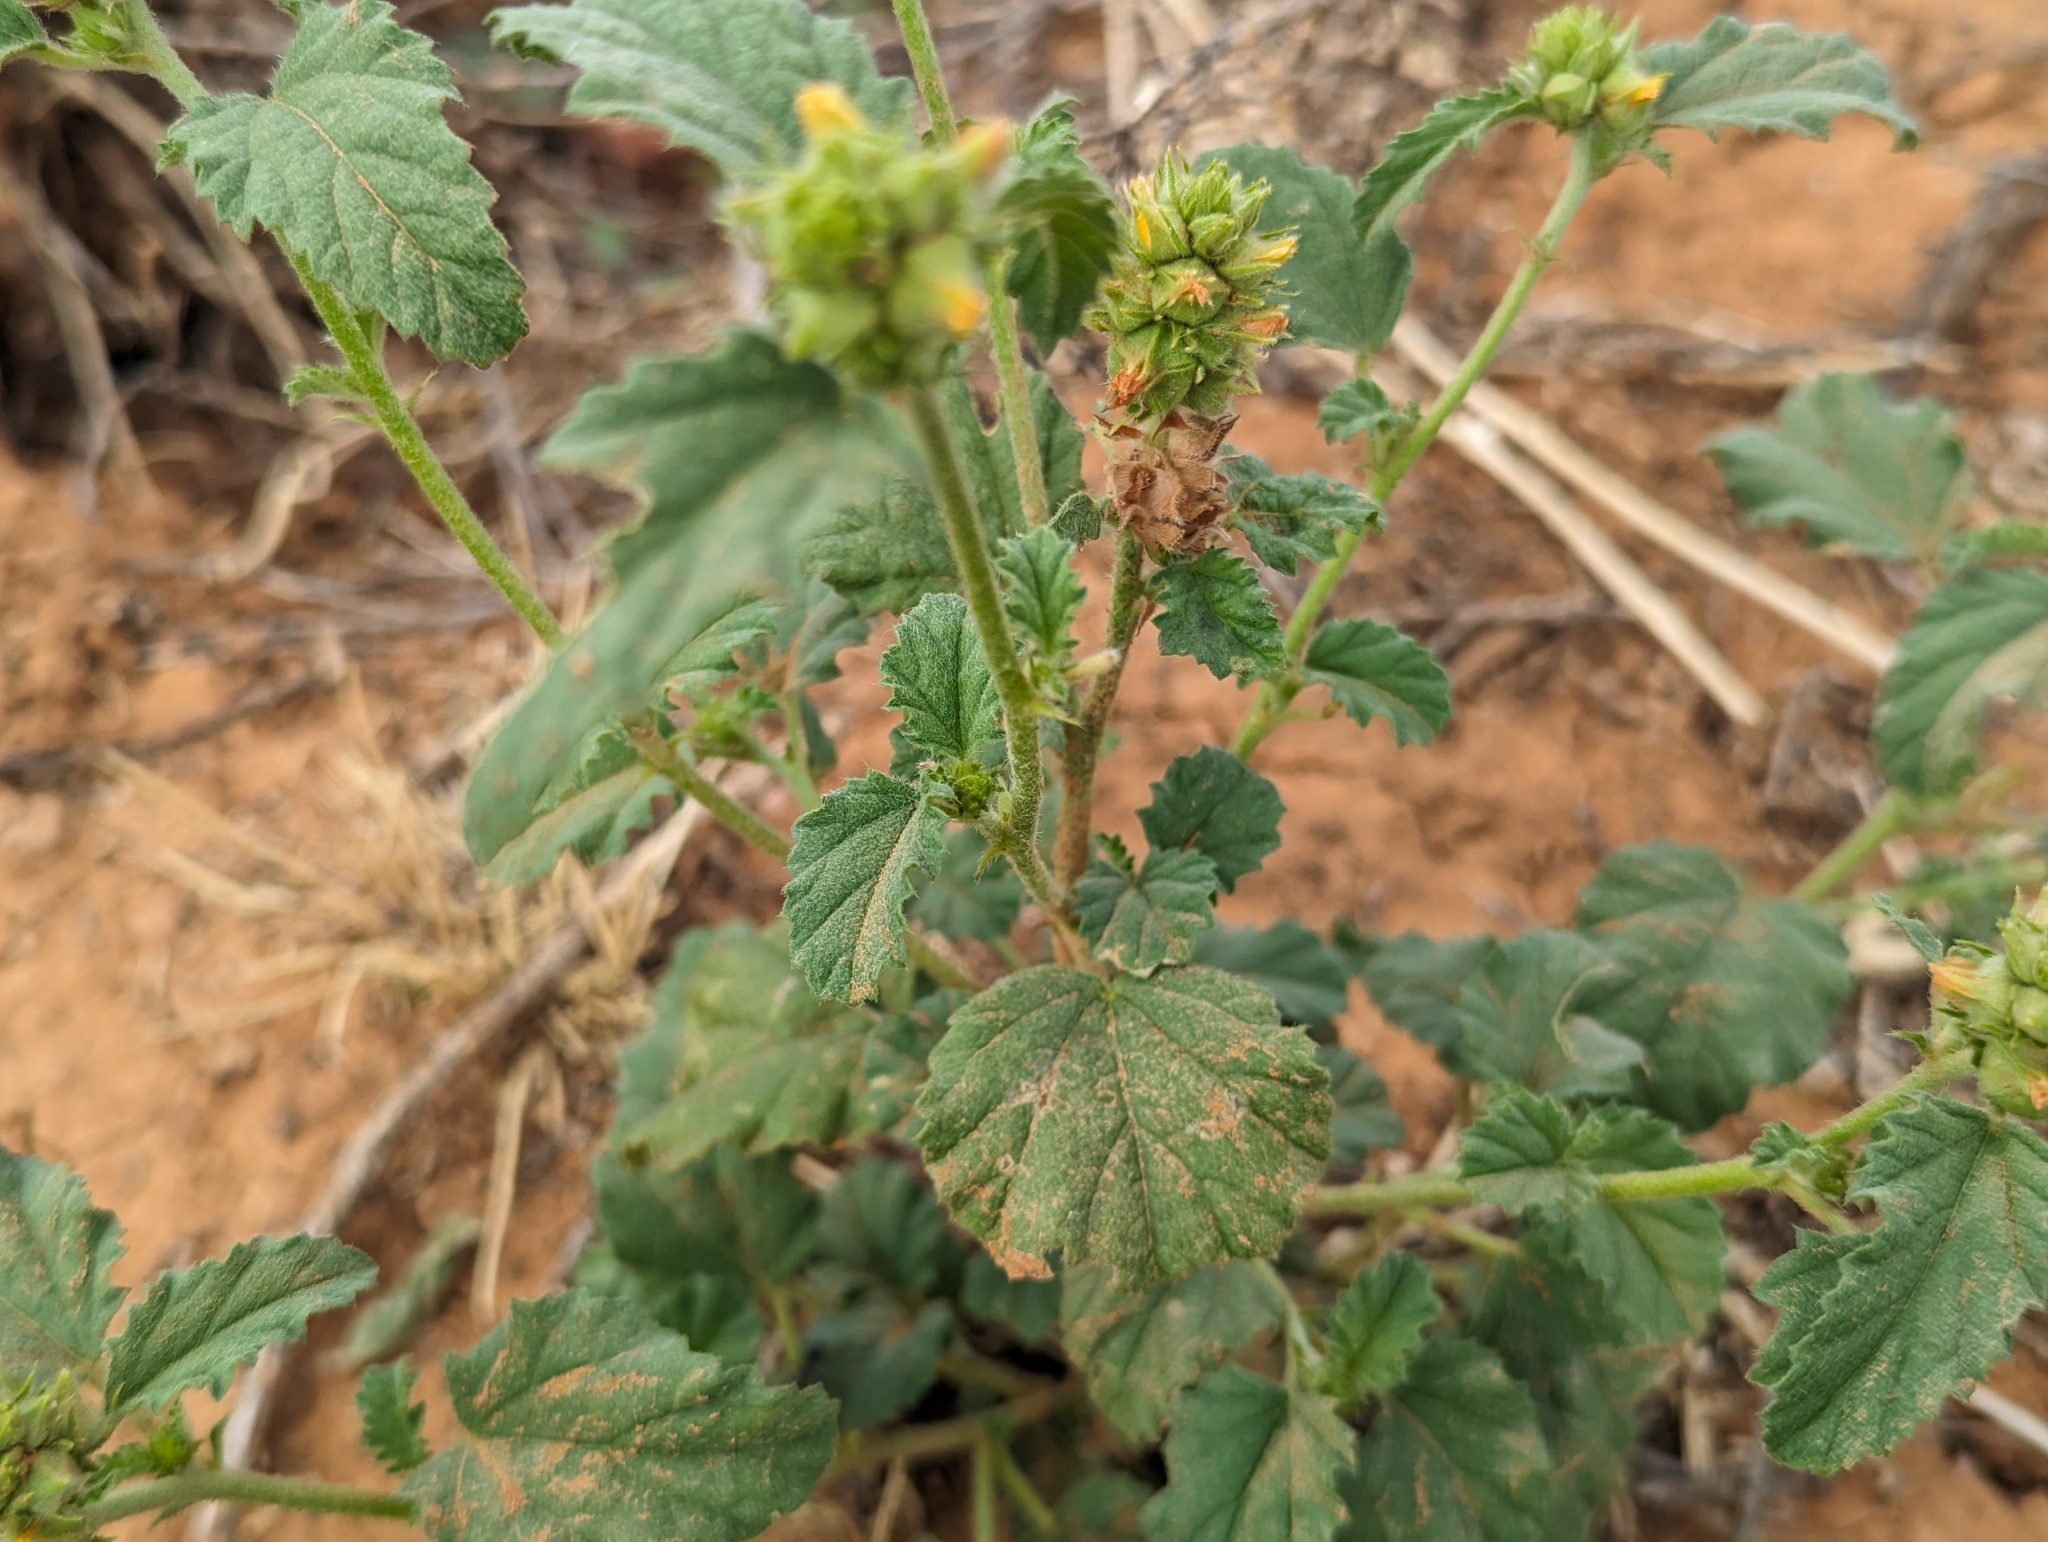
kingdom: Plantae
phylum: Tracheophyta
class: Magnoliopsida
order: Malvales
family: Malvaceae
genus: Malvastrum
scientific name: Malvastrum americanum
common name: Spiked malvastrum
